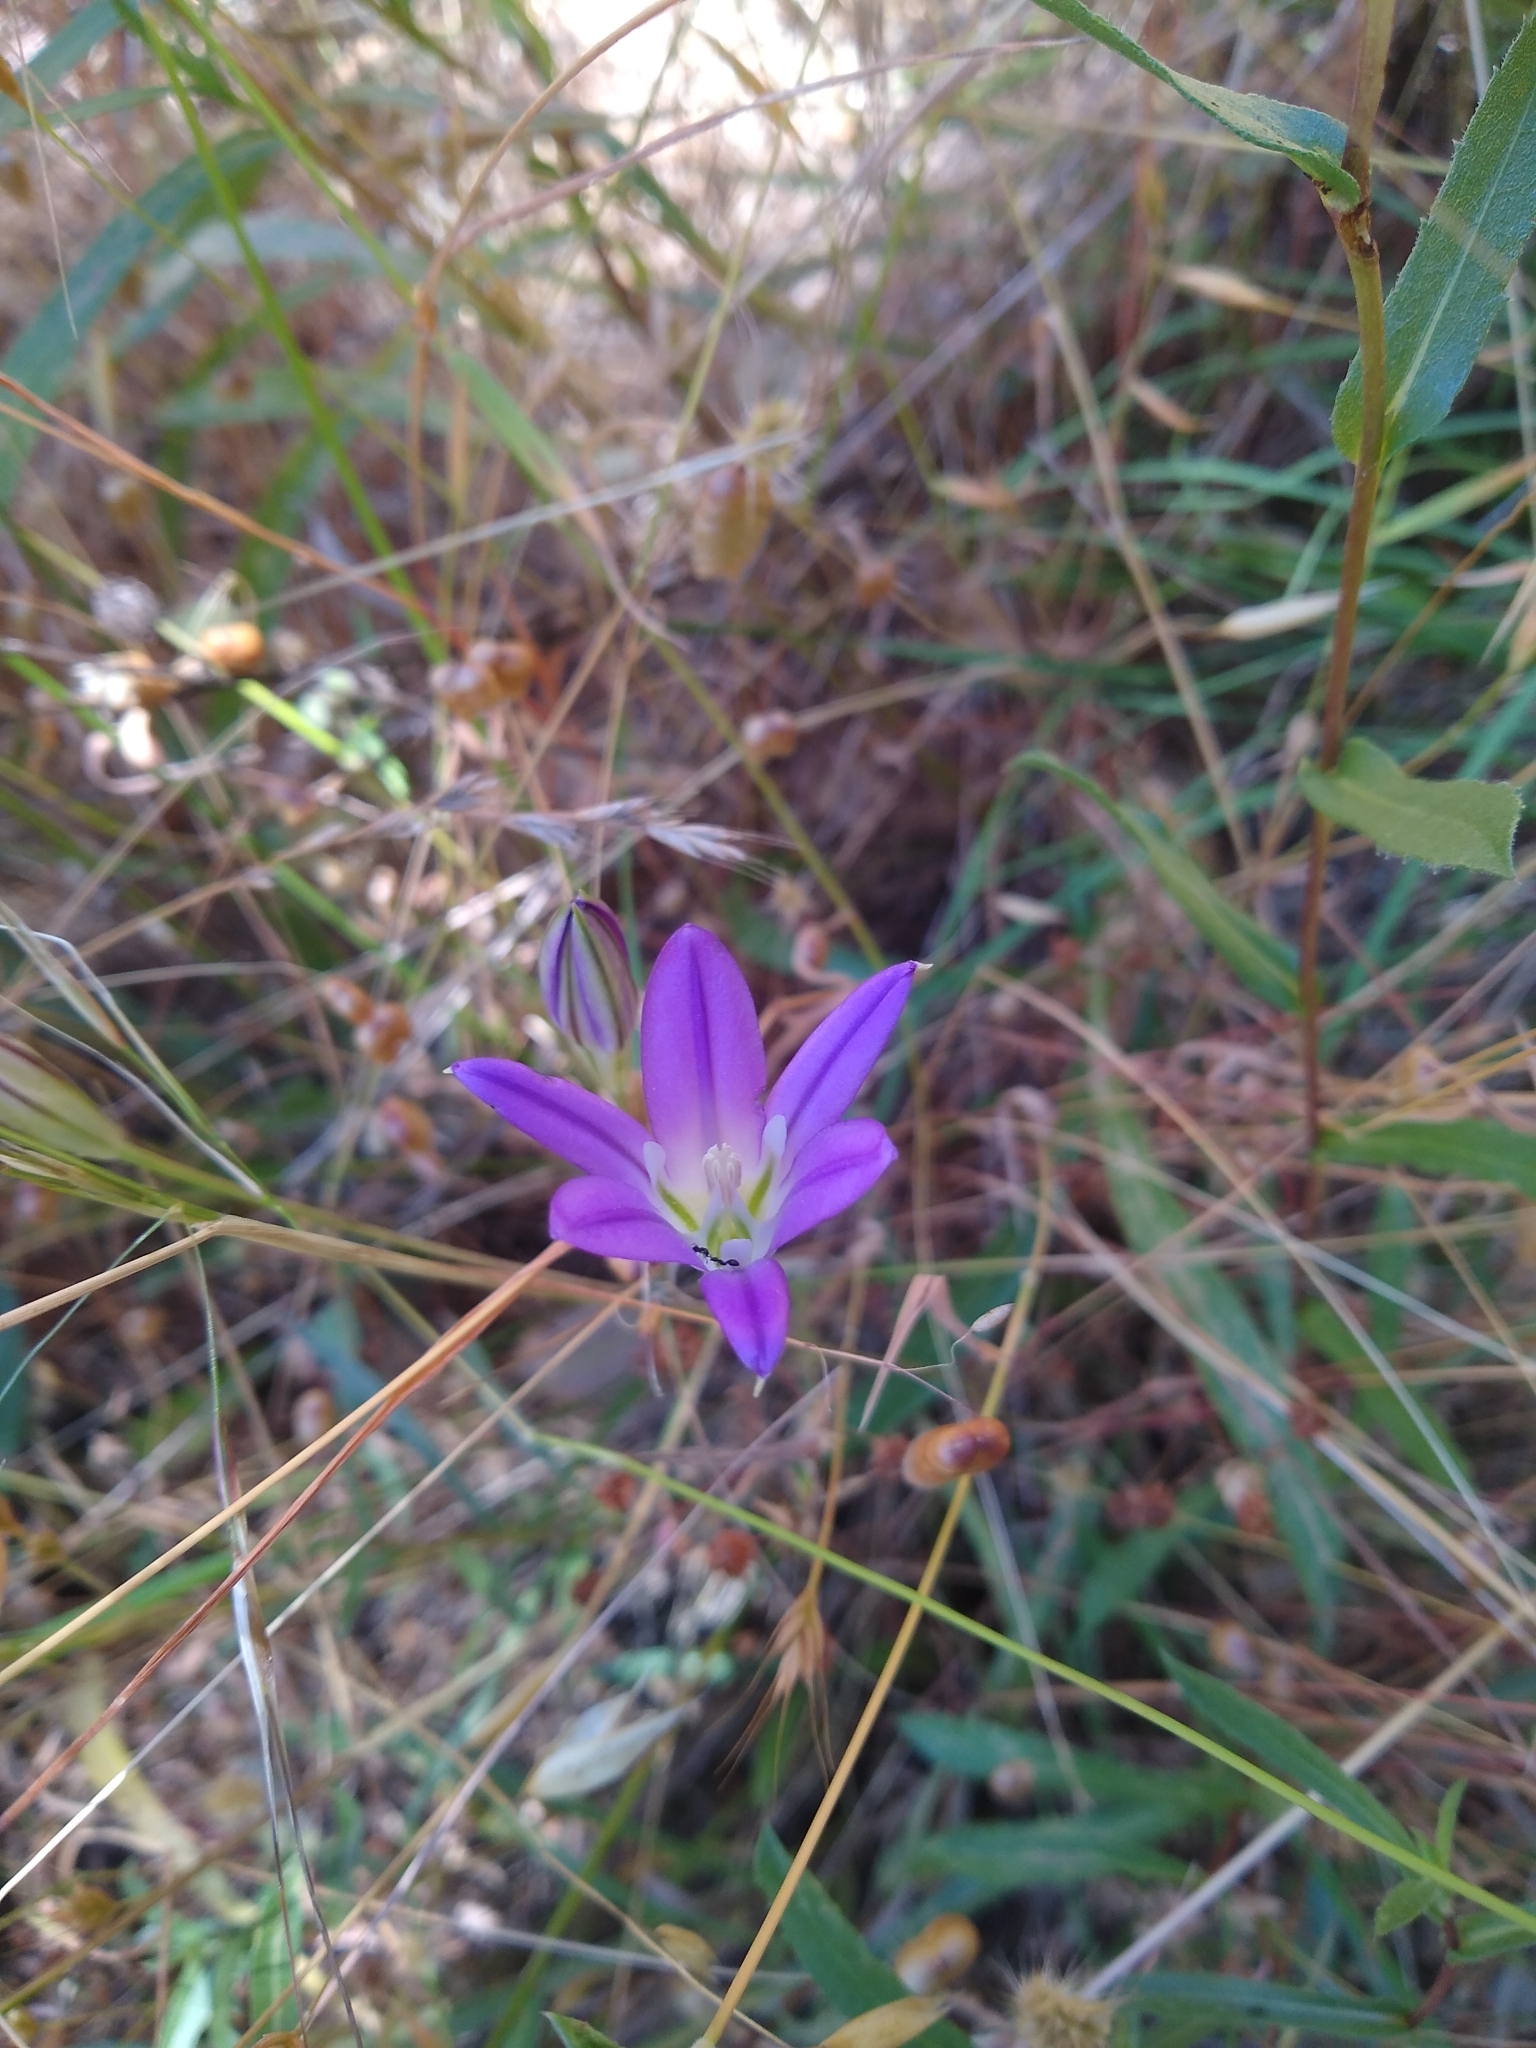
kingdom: Plantae
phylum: Tracheophyta
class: Liliopsida
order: Asparagales
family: Asparagaceae
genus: Brodiaea
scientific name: Brodiaea elegans
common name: Elegant cluster-lily
